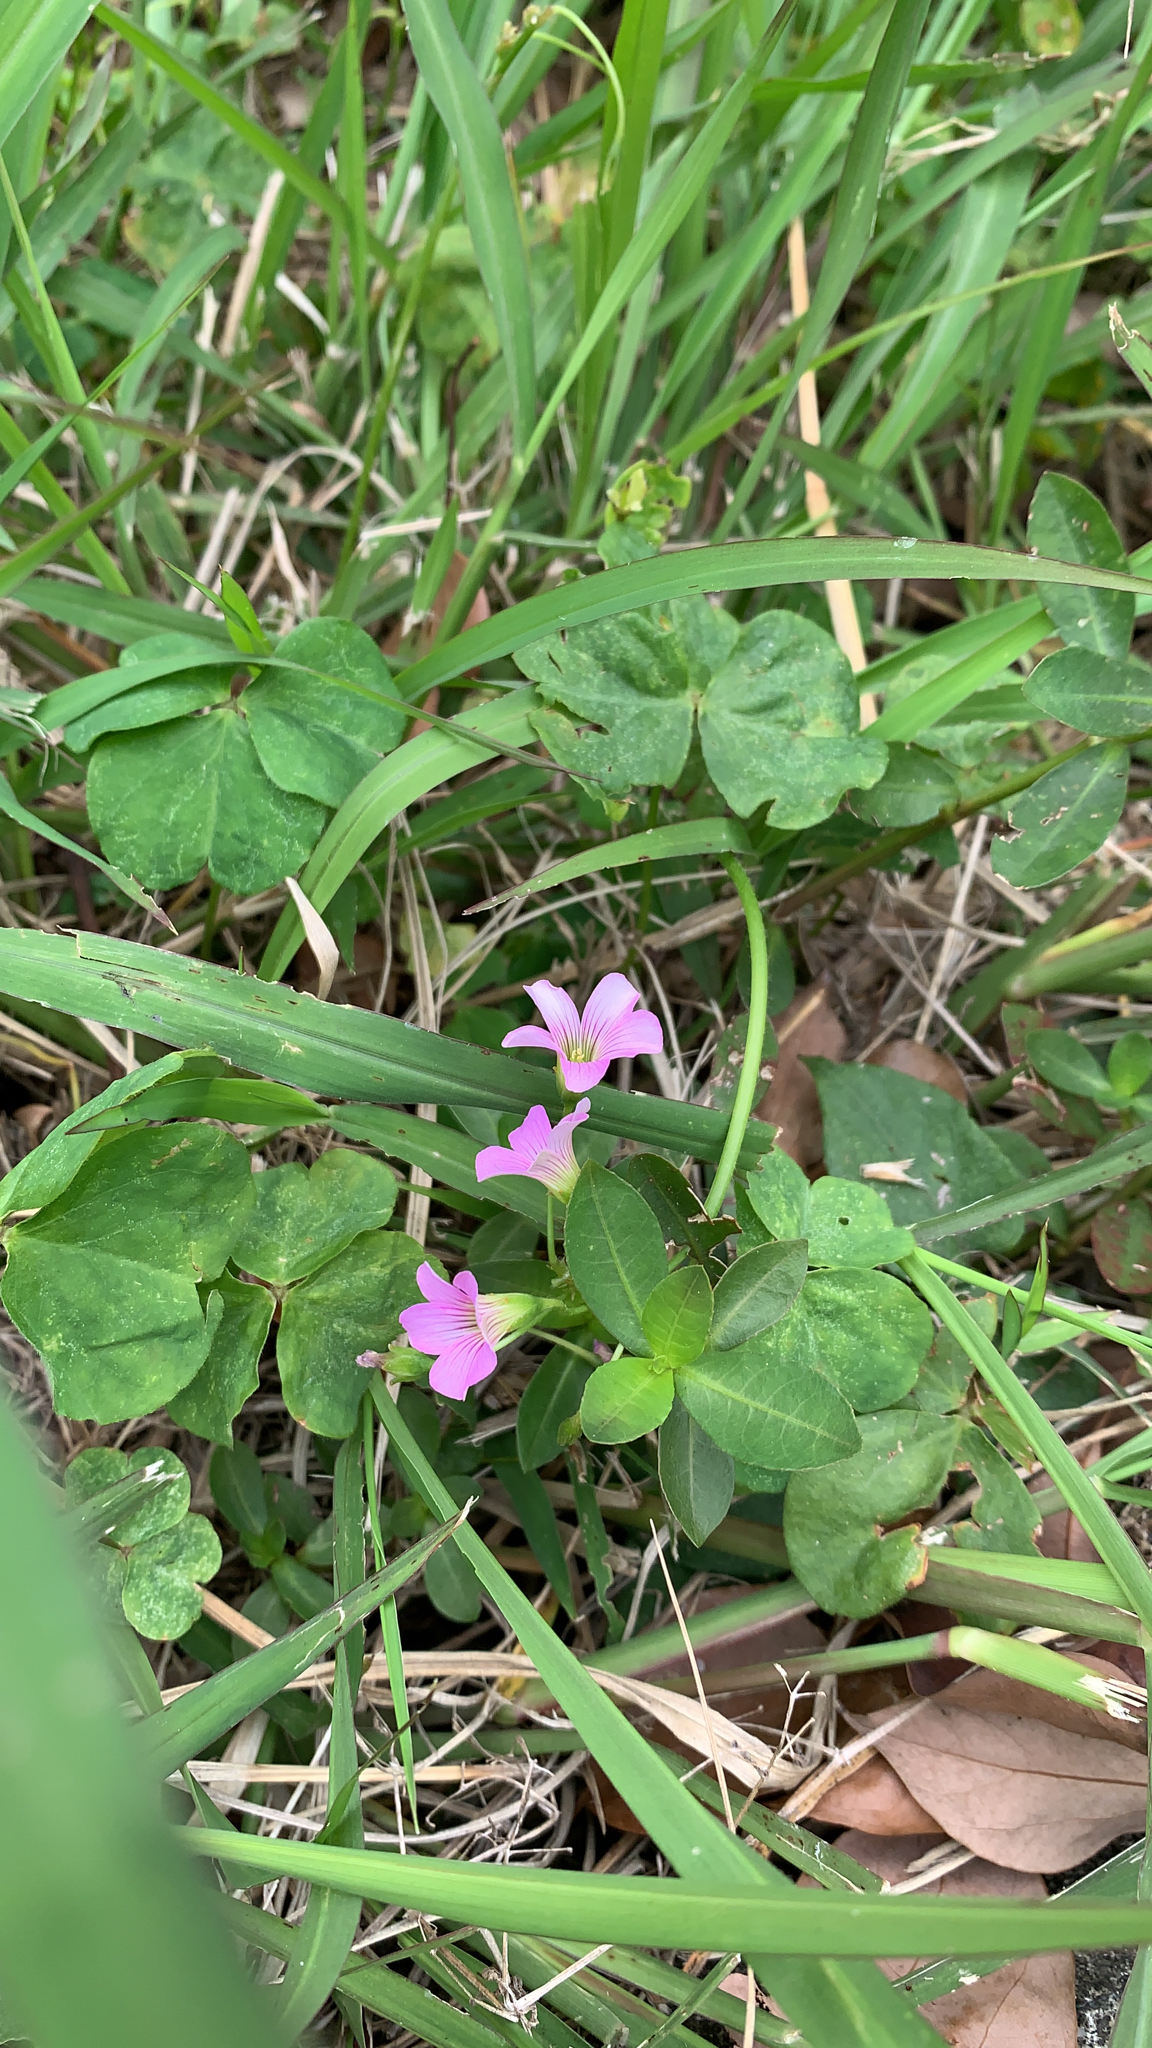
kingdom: Plantae
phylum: Tracheophyta
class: Magnoliopsida
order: Oxalidales
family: Oxalidaceae
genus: Oxalis
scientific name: Oxalis debilis
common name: Large-flowered pink-sorrel
